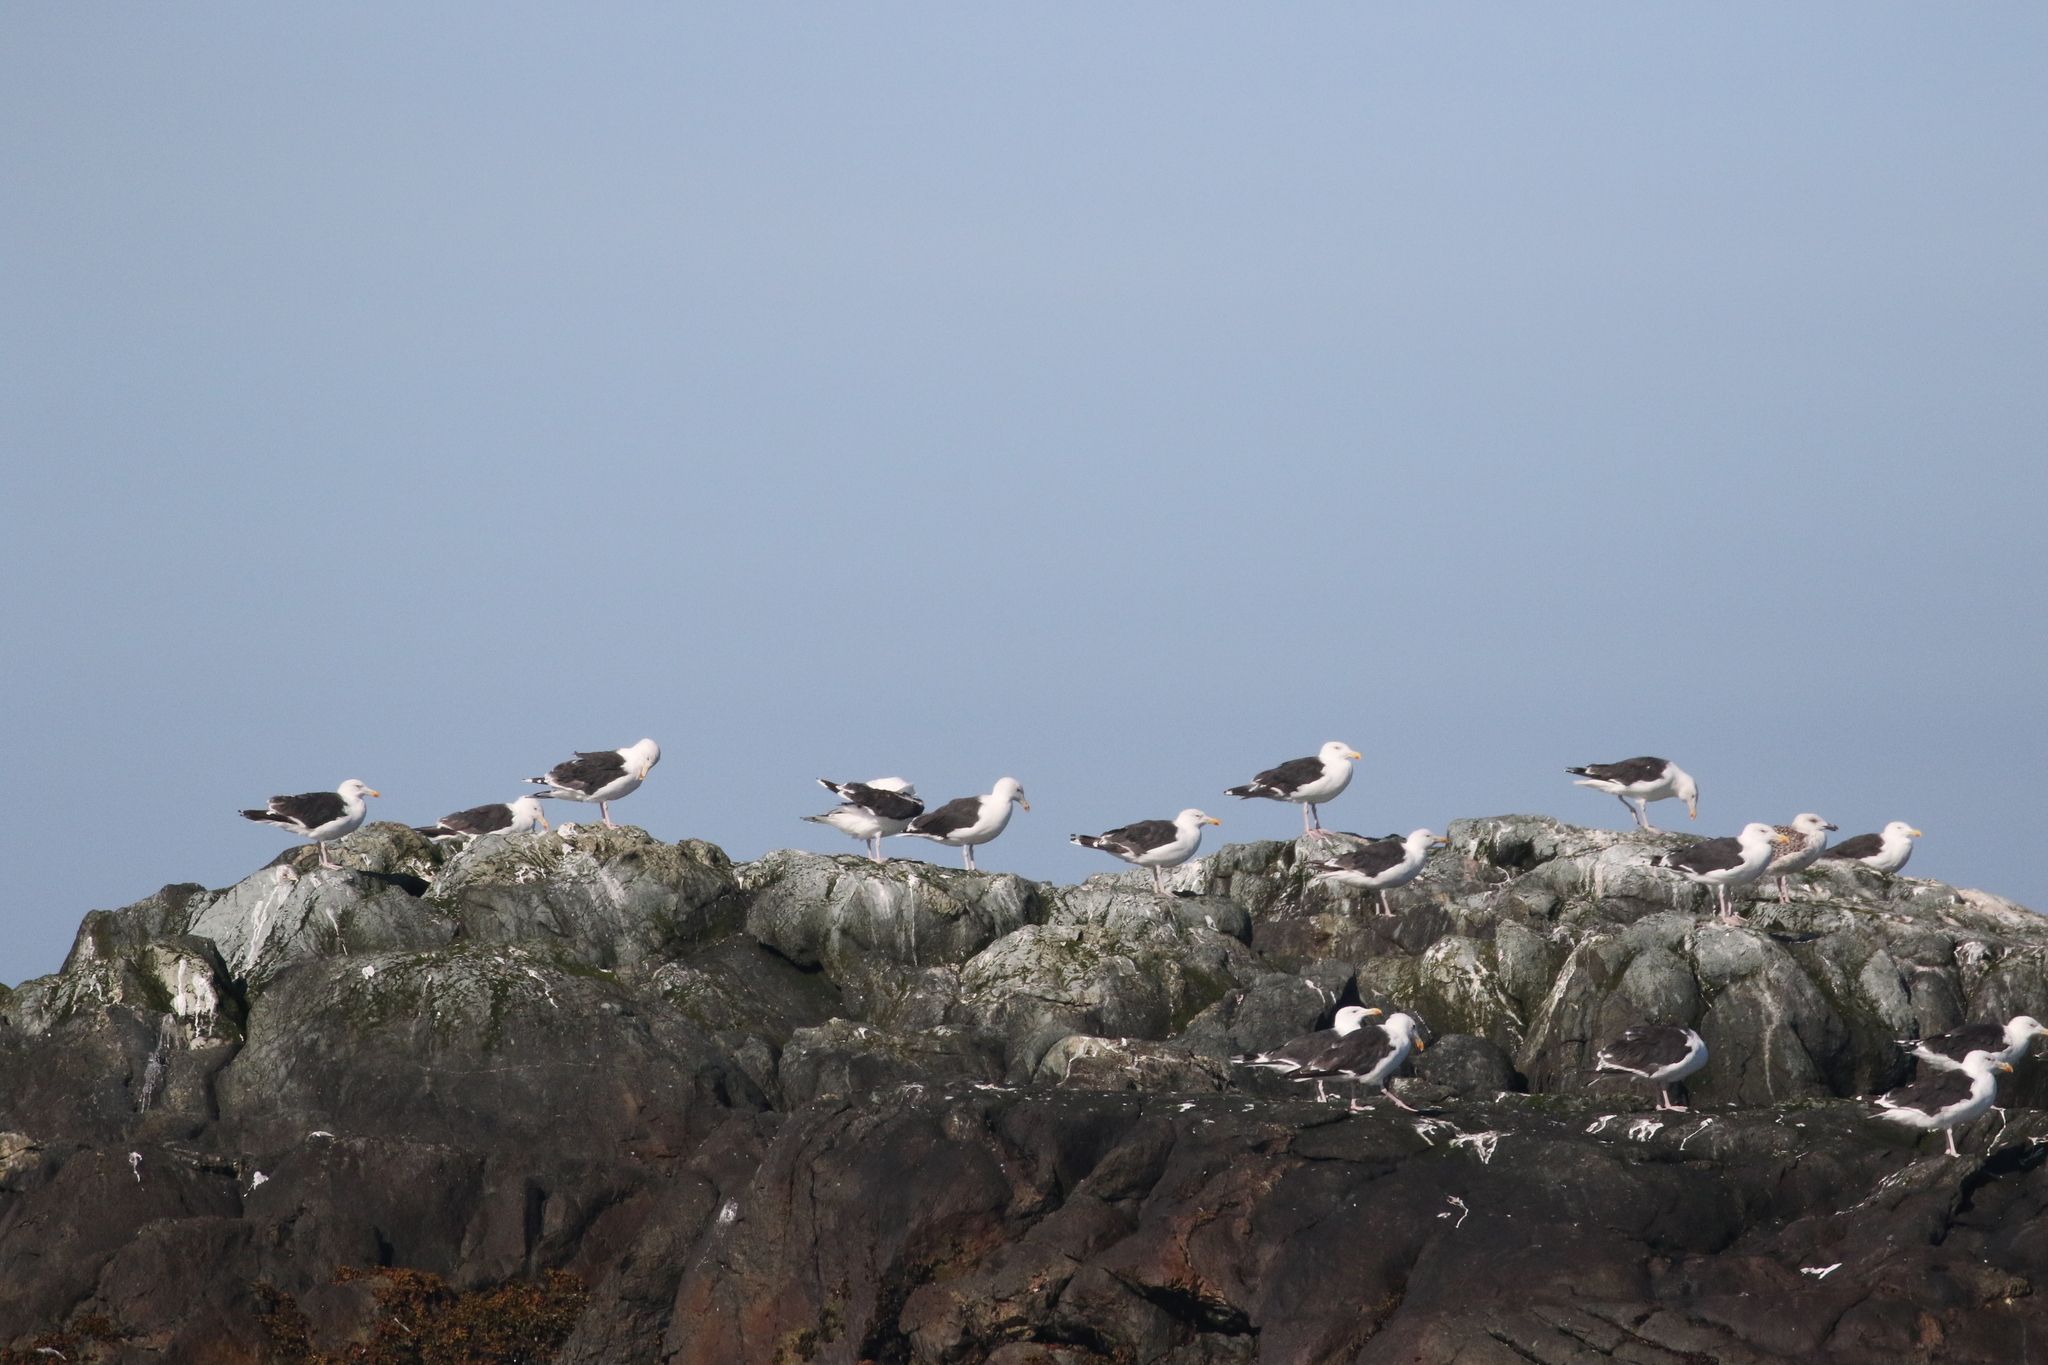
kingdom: Animalia
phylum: Chordata
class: Aves
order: Charadriiformes
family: Laridae
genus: Larus
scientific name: Larus marinus
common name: Great black-backed gull
